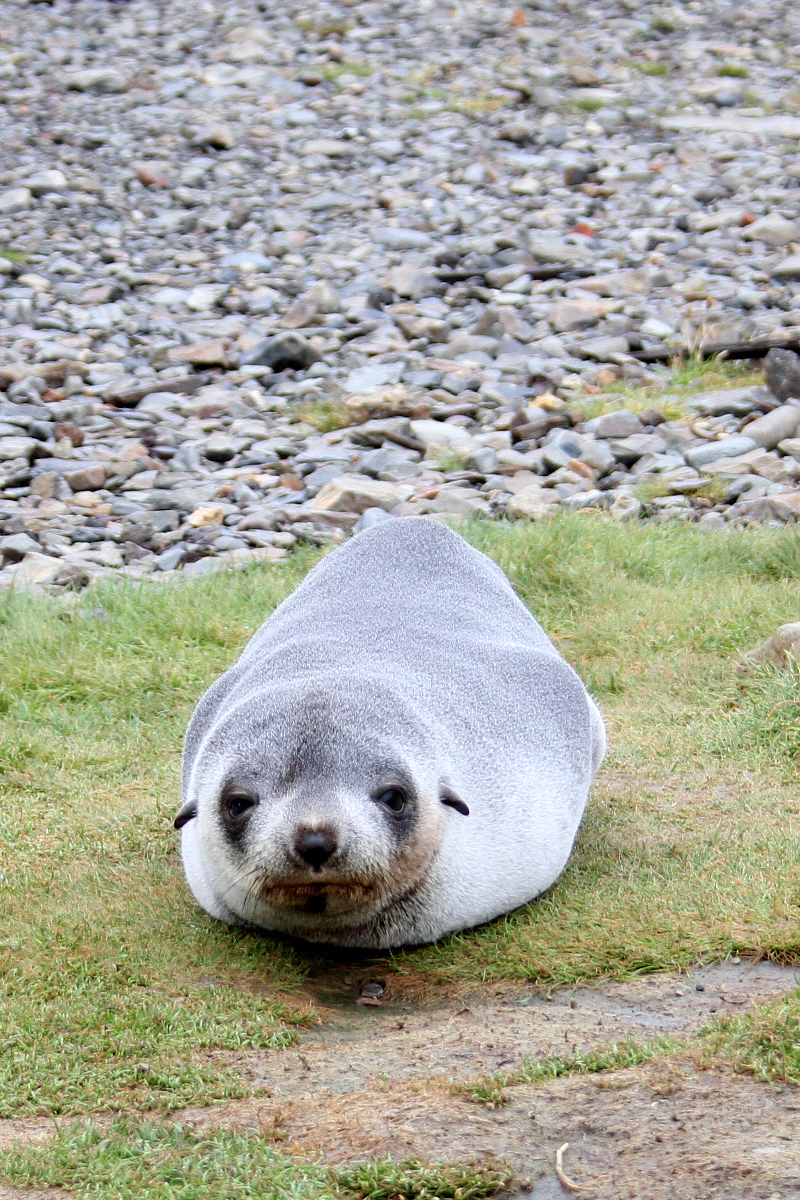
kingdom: Animalia
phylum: Chordata
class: Mammalia
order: Carnivora
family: Otariidae
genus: Arctocephalus
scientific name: Arctocephalus gazella
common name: Antarctic fur seal
